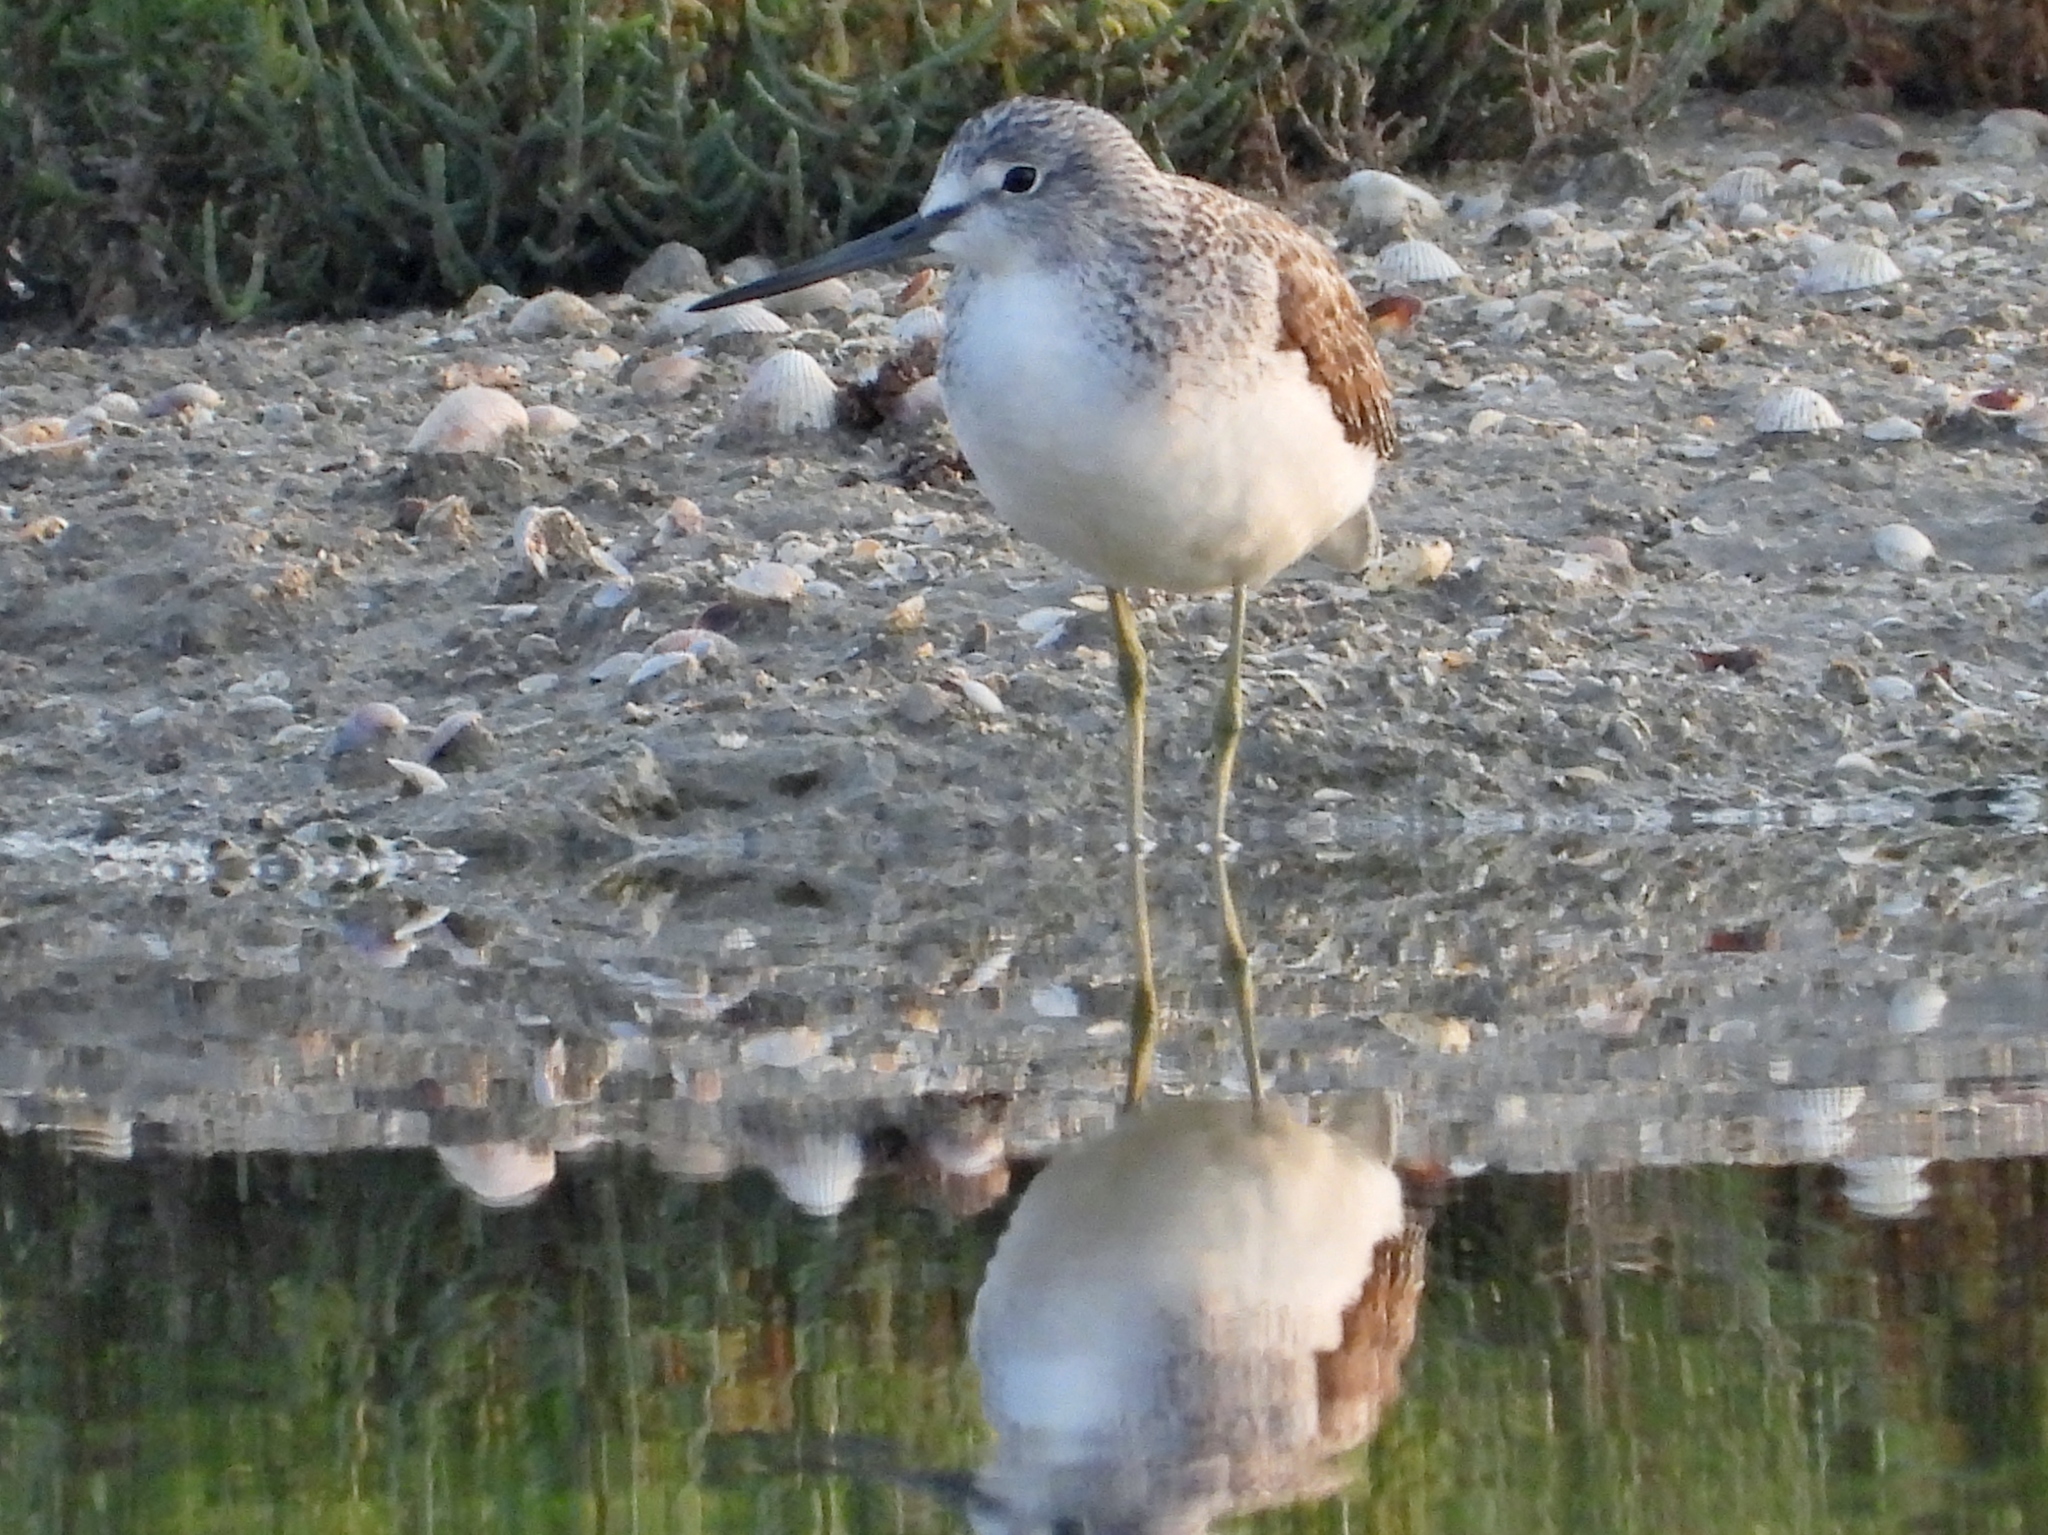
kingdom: Animalia
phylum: Chordata
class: Aves
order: Charadriiformes
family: Scolopacidae
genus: Tringa
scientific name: Tringa nebularia
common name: Common greenshank
